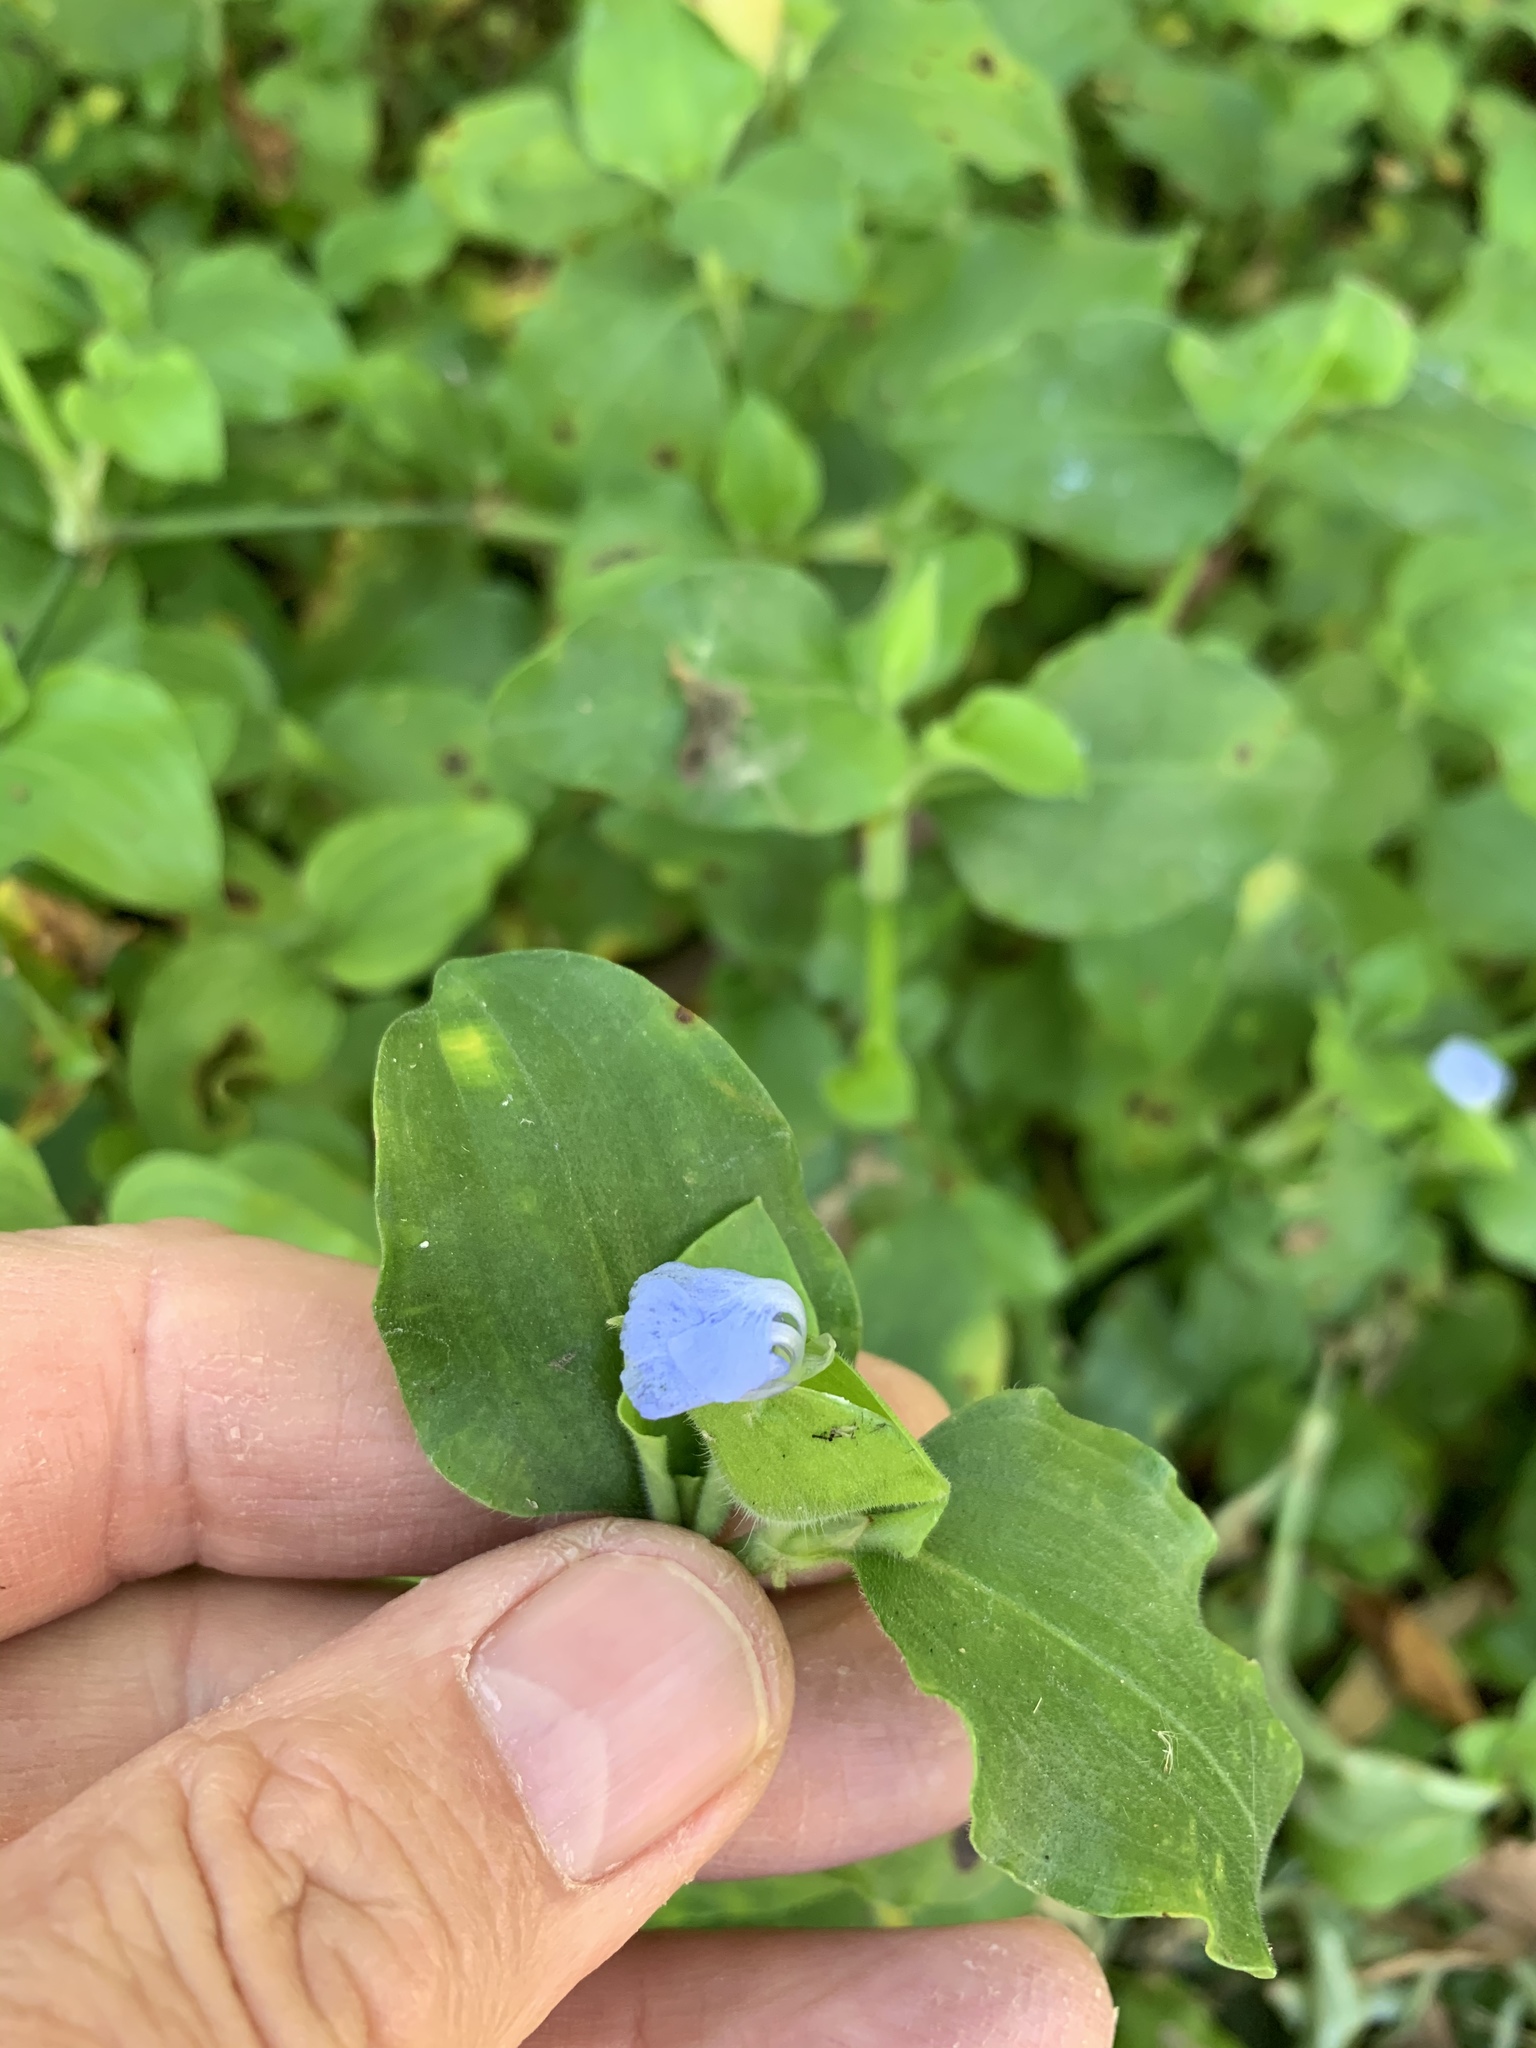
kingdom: Plantae
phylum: Tracheophyta
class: Liliopsida
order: Commelinales
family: Commelinaceae
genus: Commelina
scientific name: Commelina benghalensis
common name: Jio
